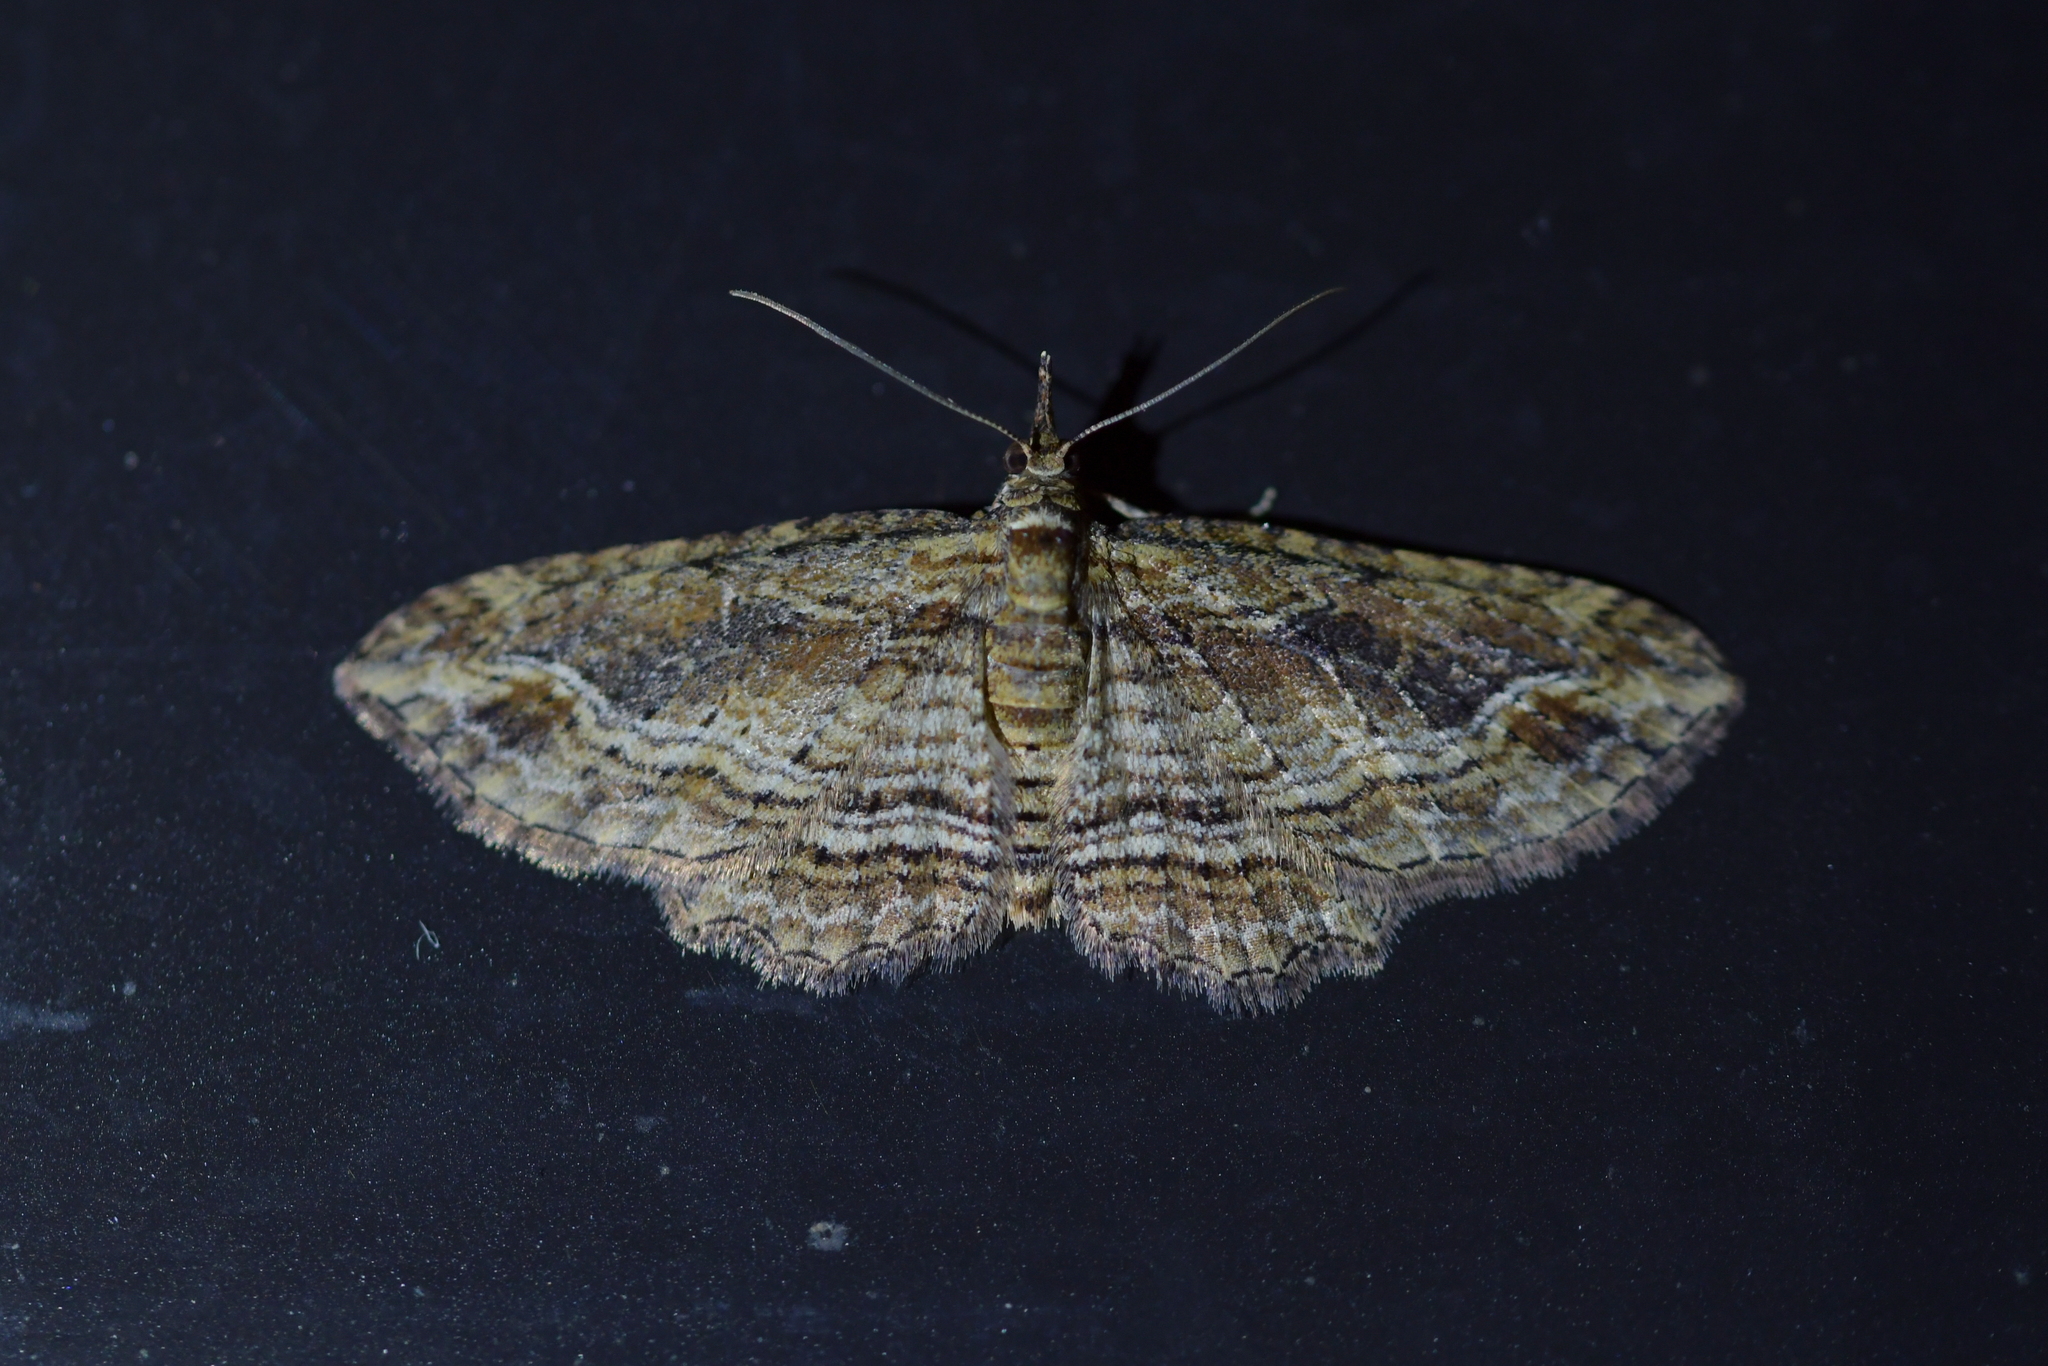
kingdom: Animalia
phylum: Arthropoda
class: Insecta
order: Lepidoptera
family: Geometridae
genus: Chloroclystis
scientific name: Chloroclystis filata
